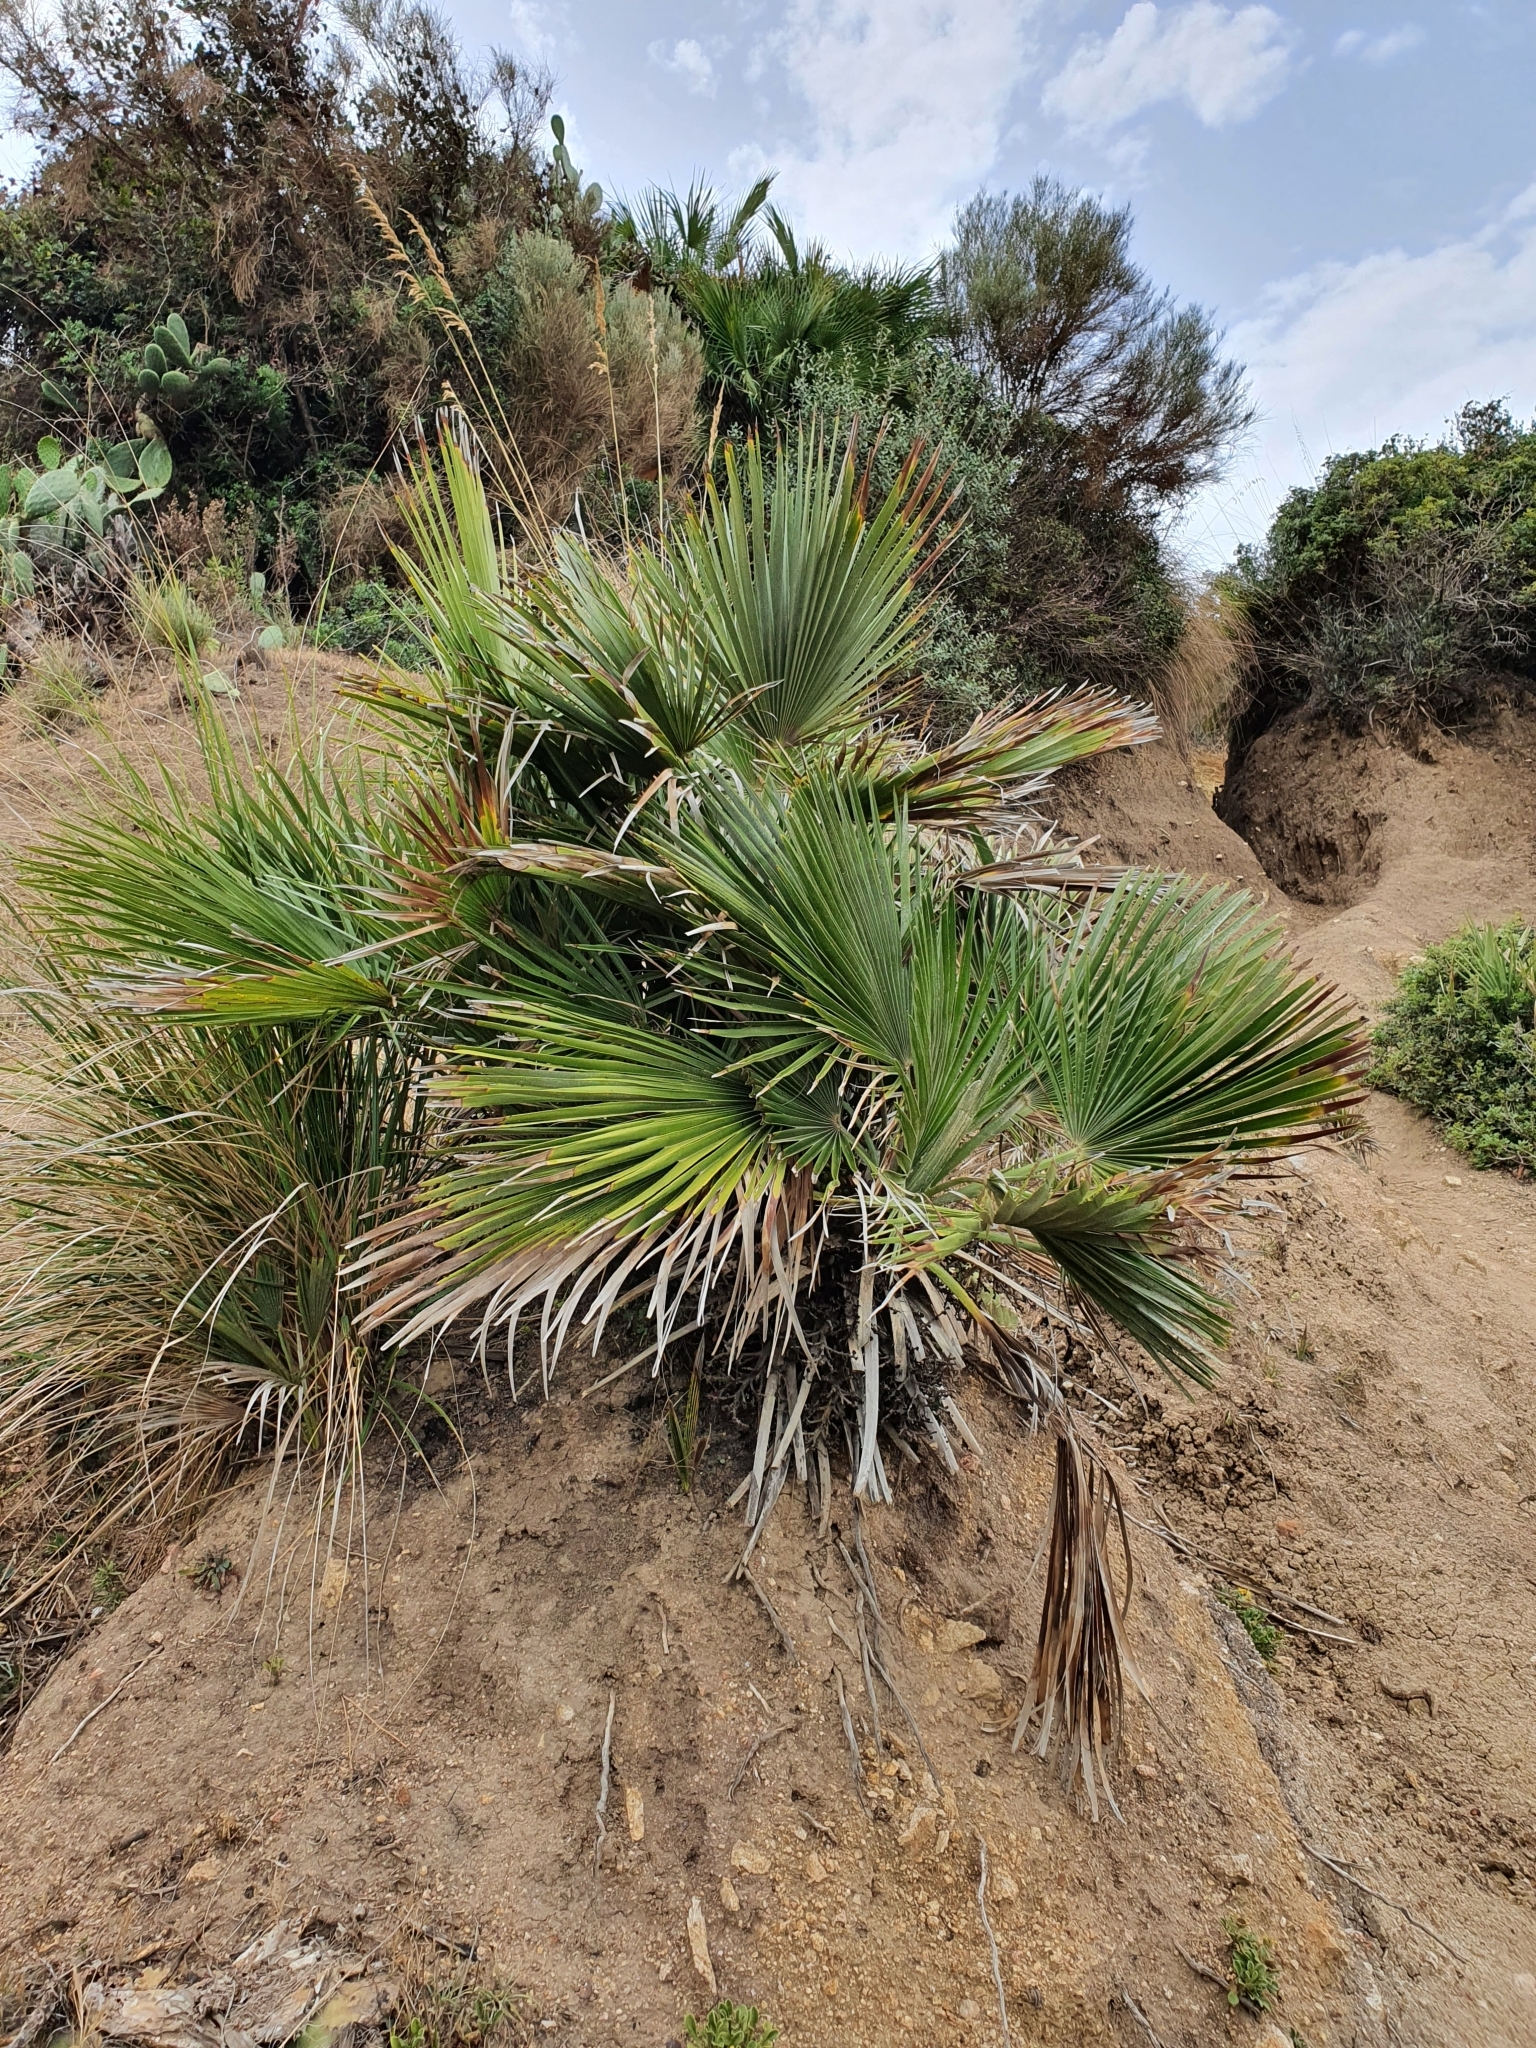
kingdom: Plantae
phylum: Tracheophyta
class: Liliopsida
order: Arecales
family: Arecaceae
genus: Chamaerops
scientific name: Chamaerops humilis
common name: Dwarf fan palm
